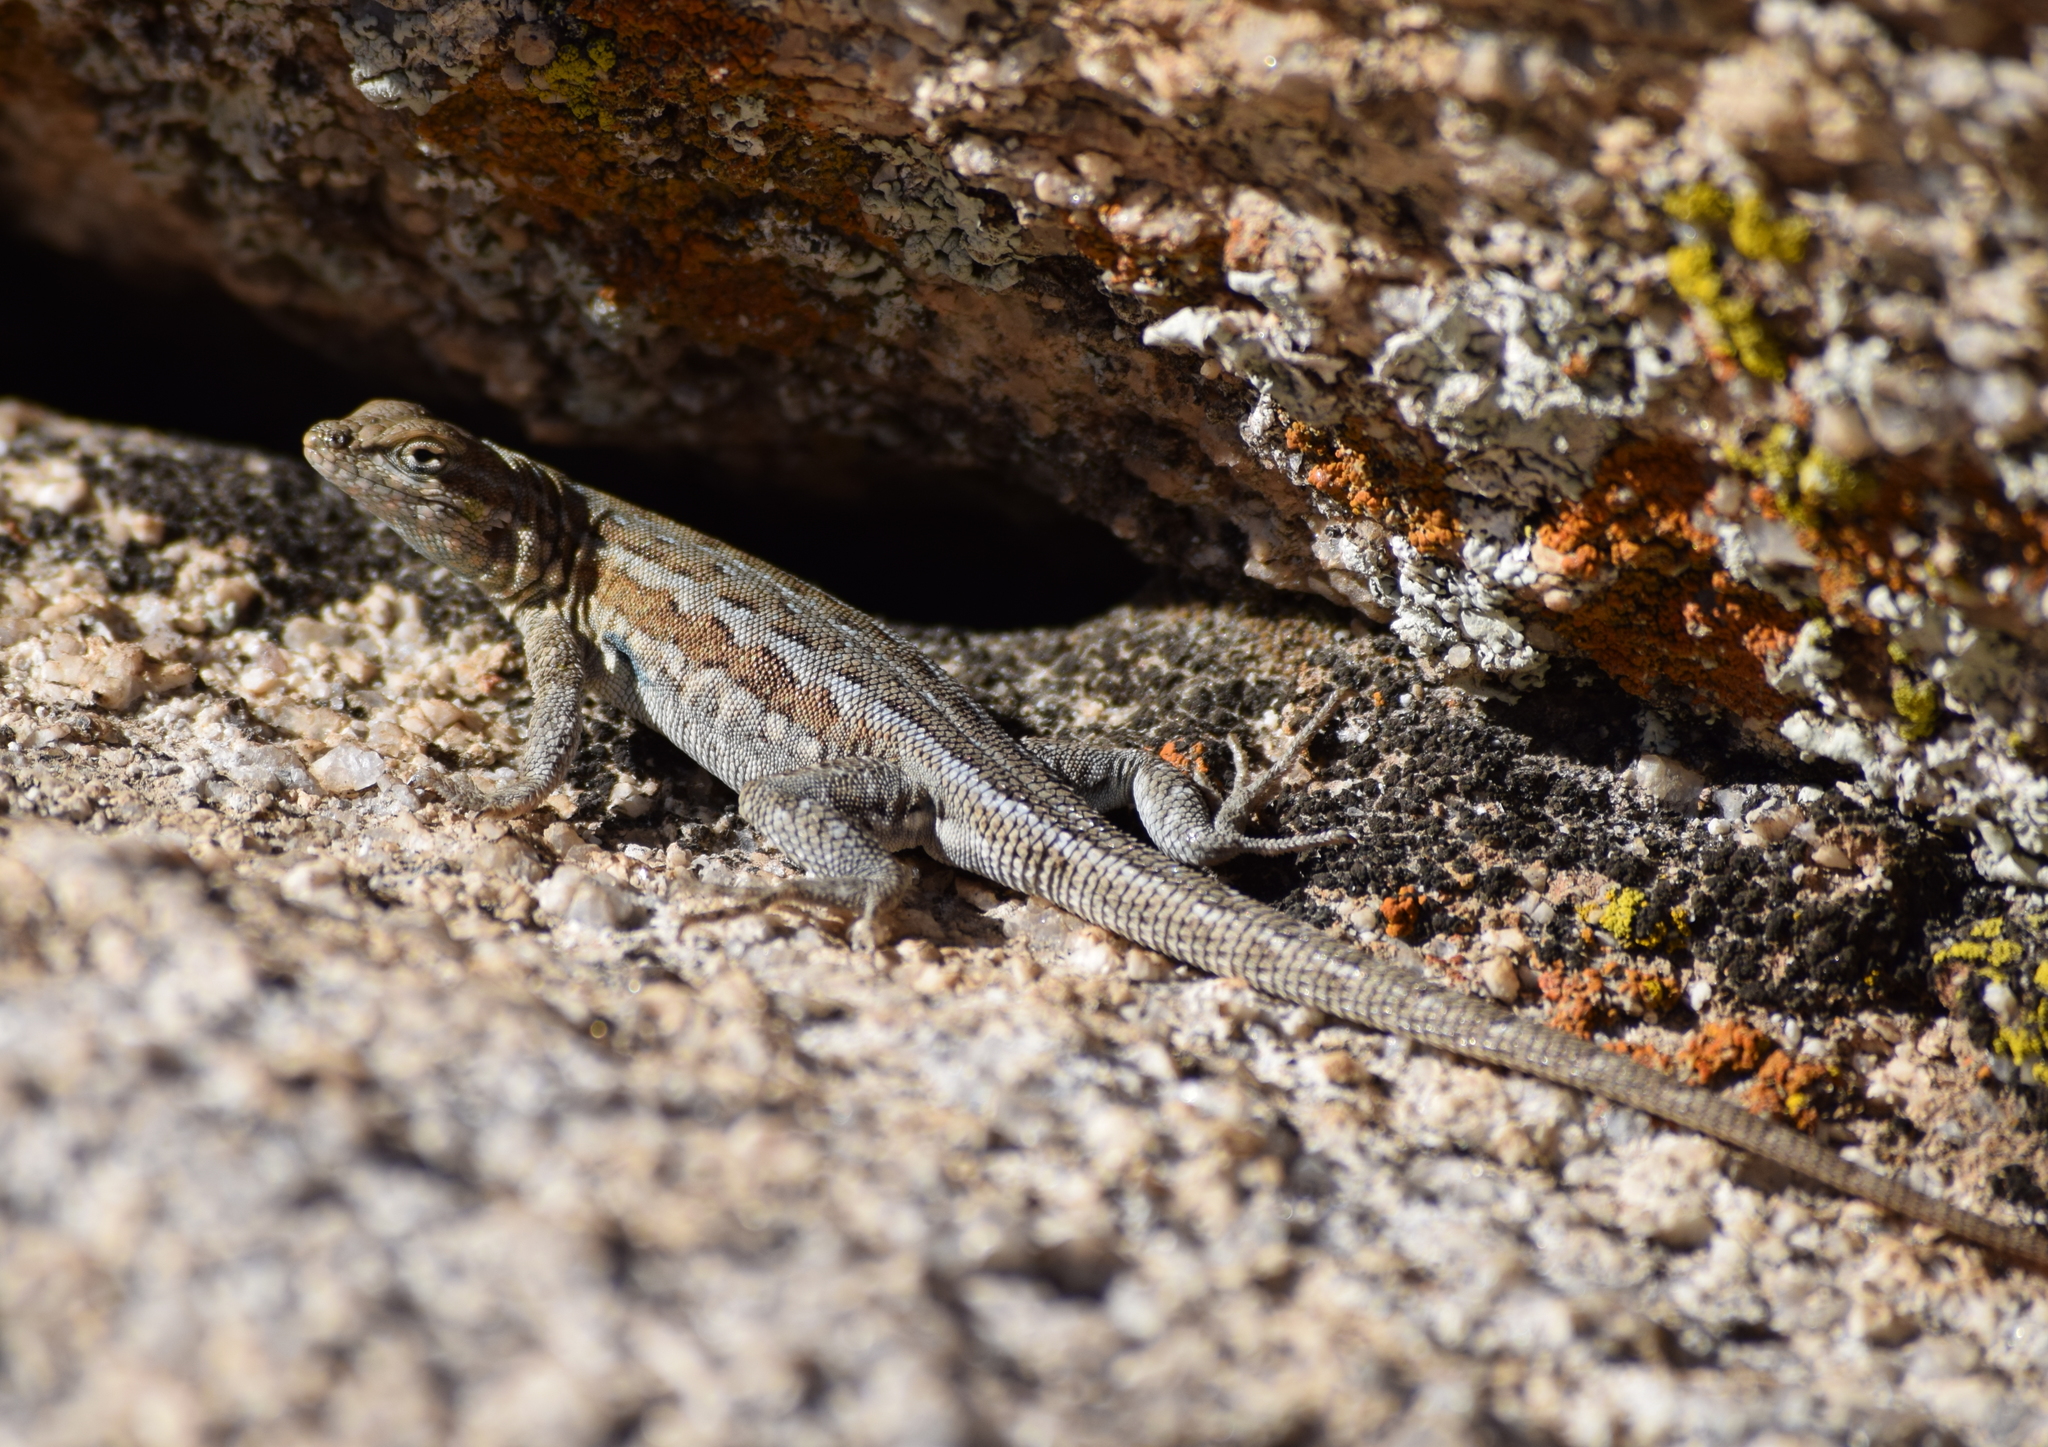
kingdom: Animalia
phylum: Chordata
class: Squamata
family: Phrynosomatidae
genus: Uta
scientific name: Uta stansburiana
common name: Side-blotched lizard
